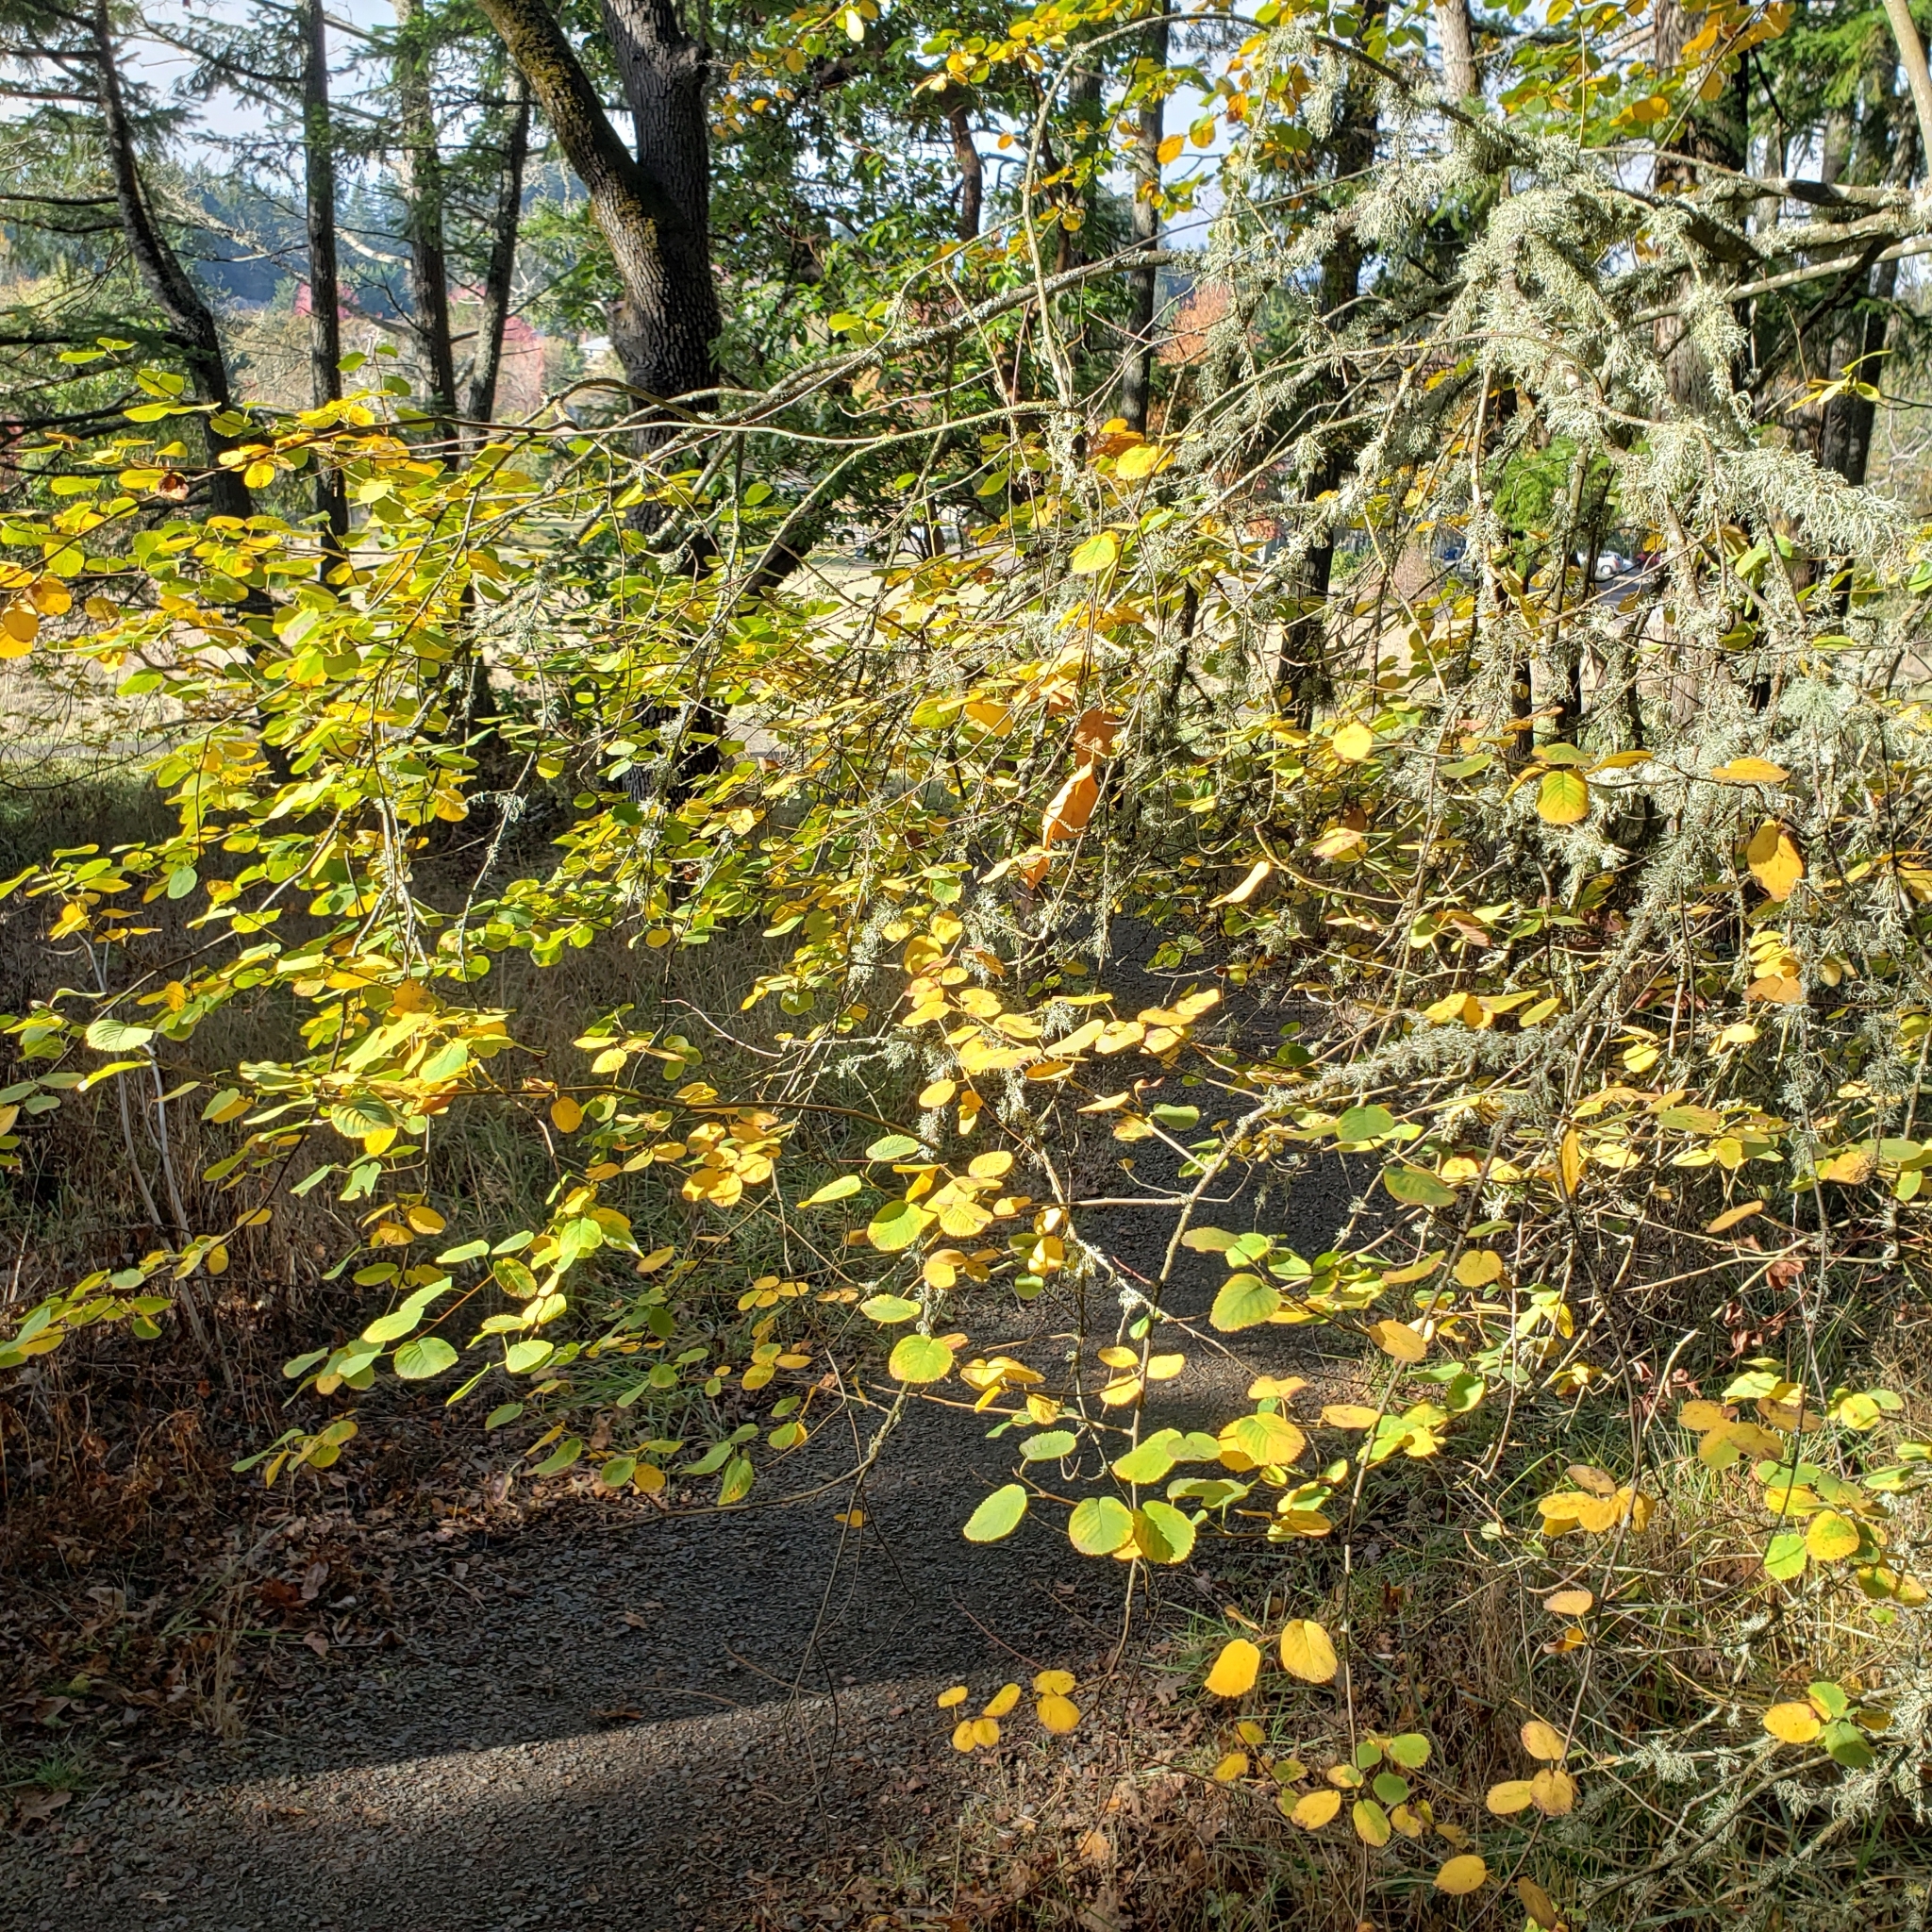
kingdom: Plantae
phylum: Tracheophyta
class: Magnoliopsida
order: Rosales
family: Rosaceae
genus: Amelanchier
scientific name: Amelanchier alnifolia
